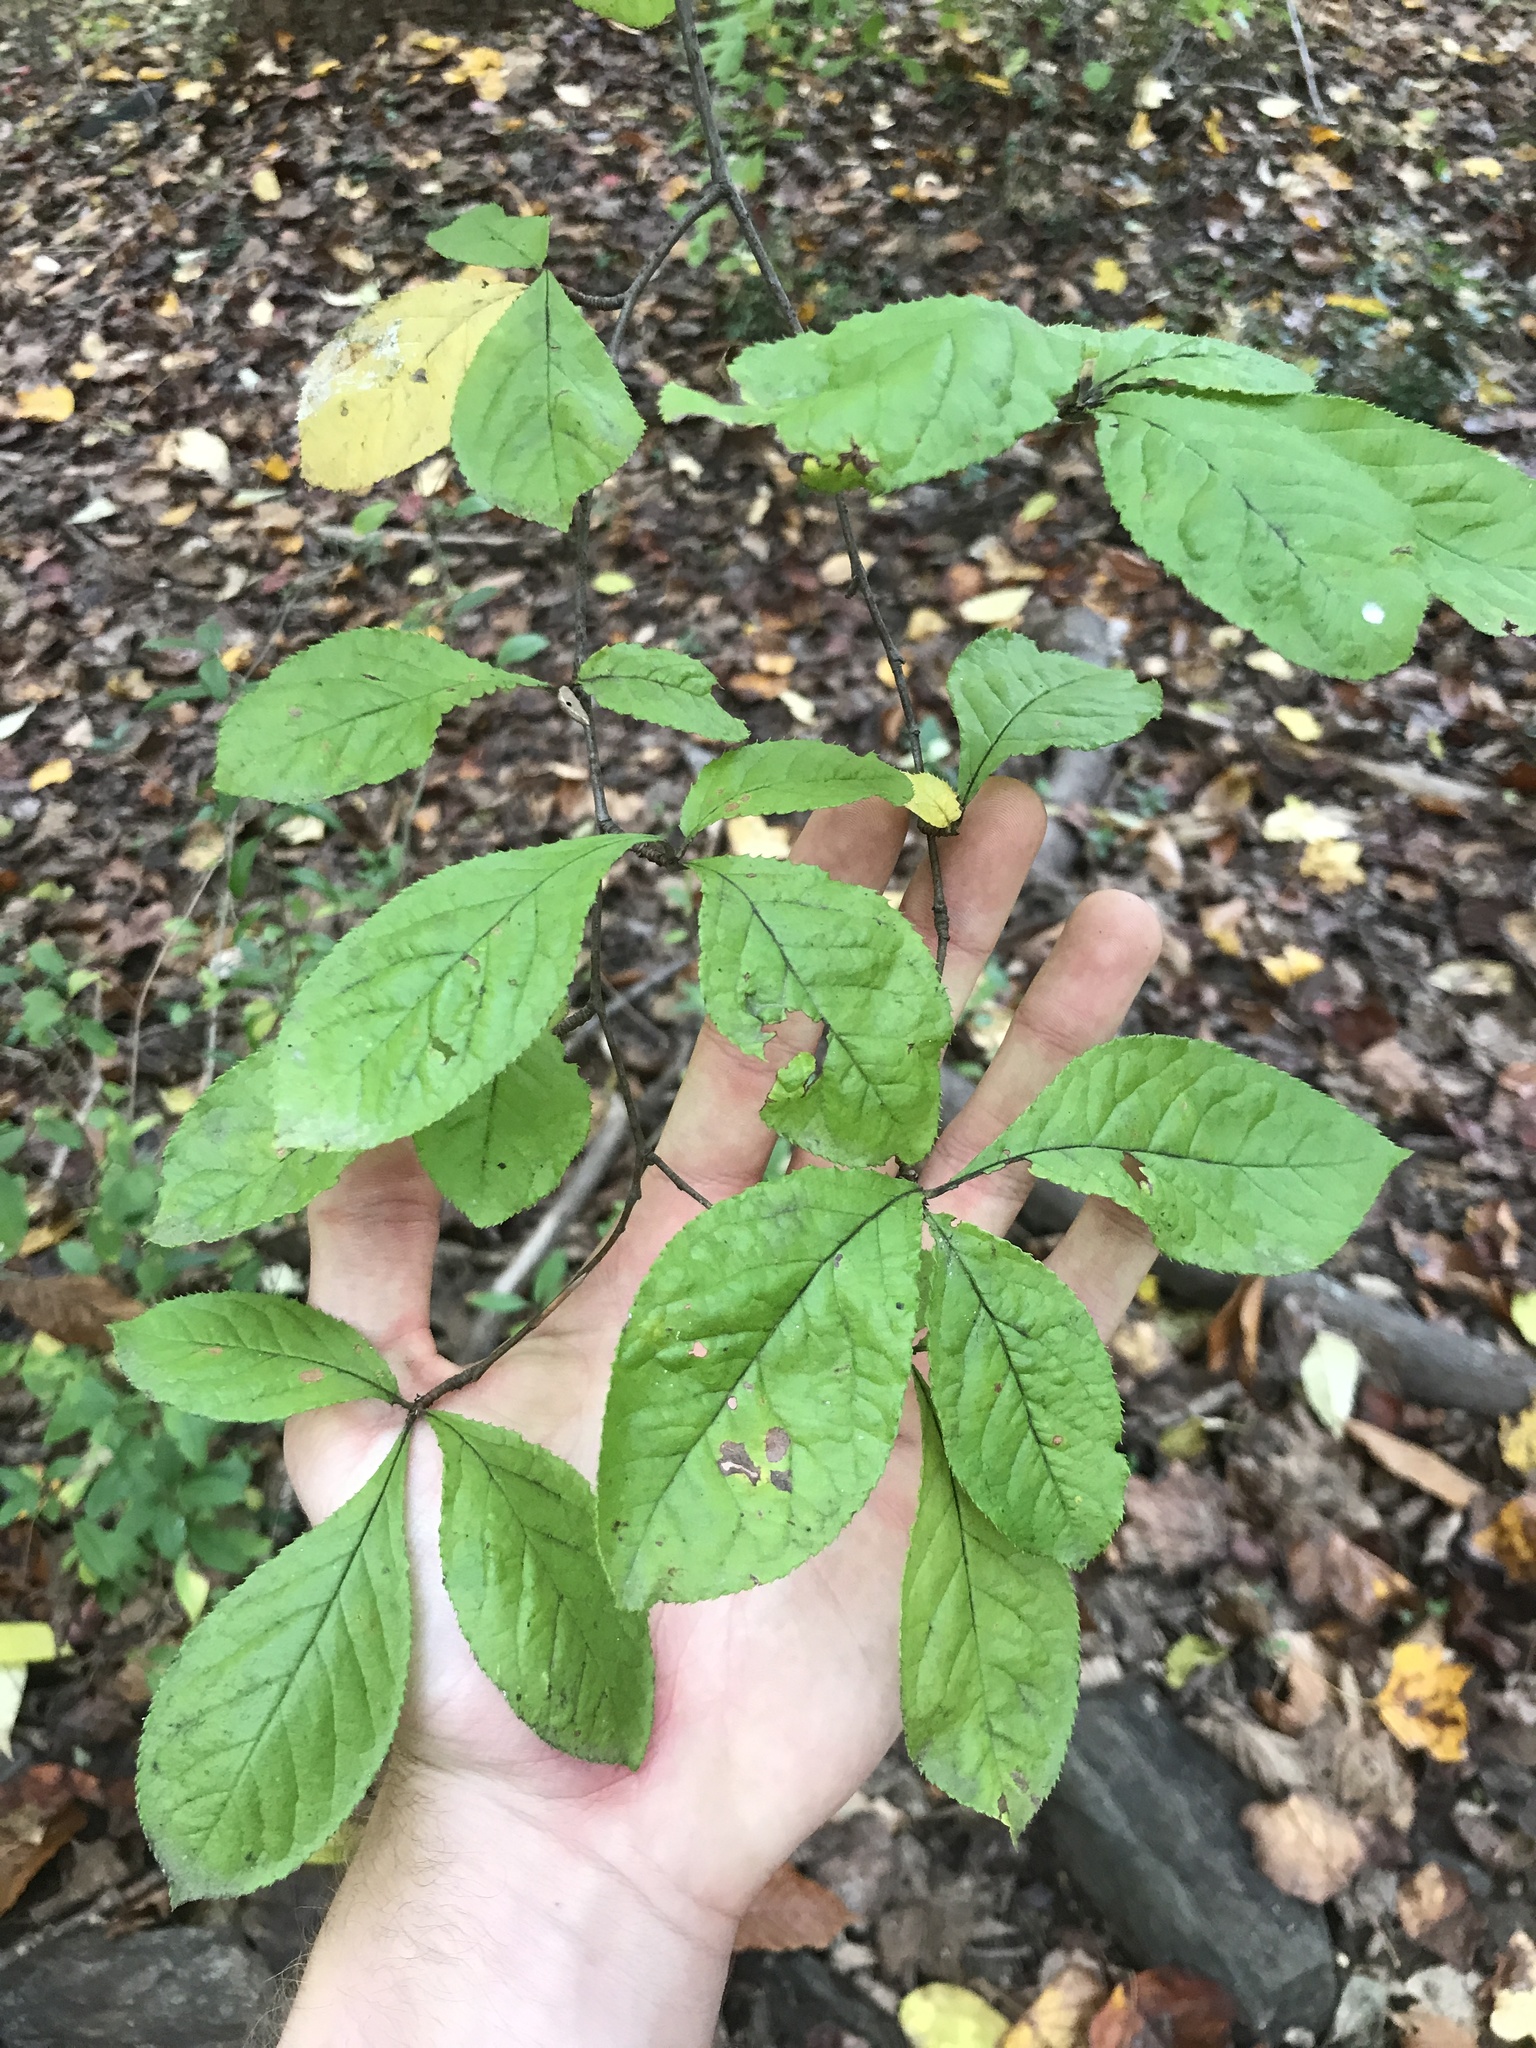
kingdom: Plantae
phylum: Tracheophyta
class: Magnoliopsida
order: Rosales
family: Rosaceae
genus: Pourthiaea
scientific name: Pourthiaea villosa
